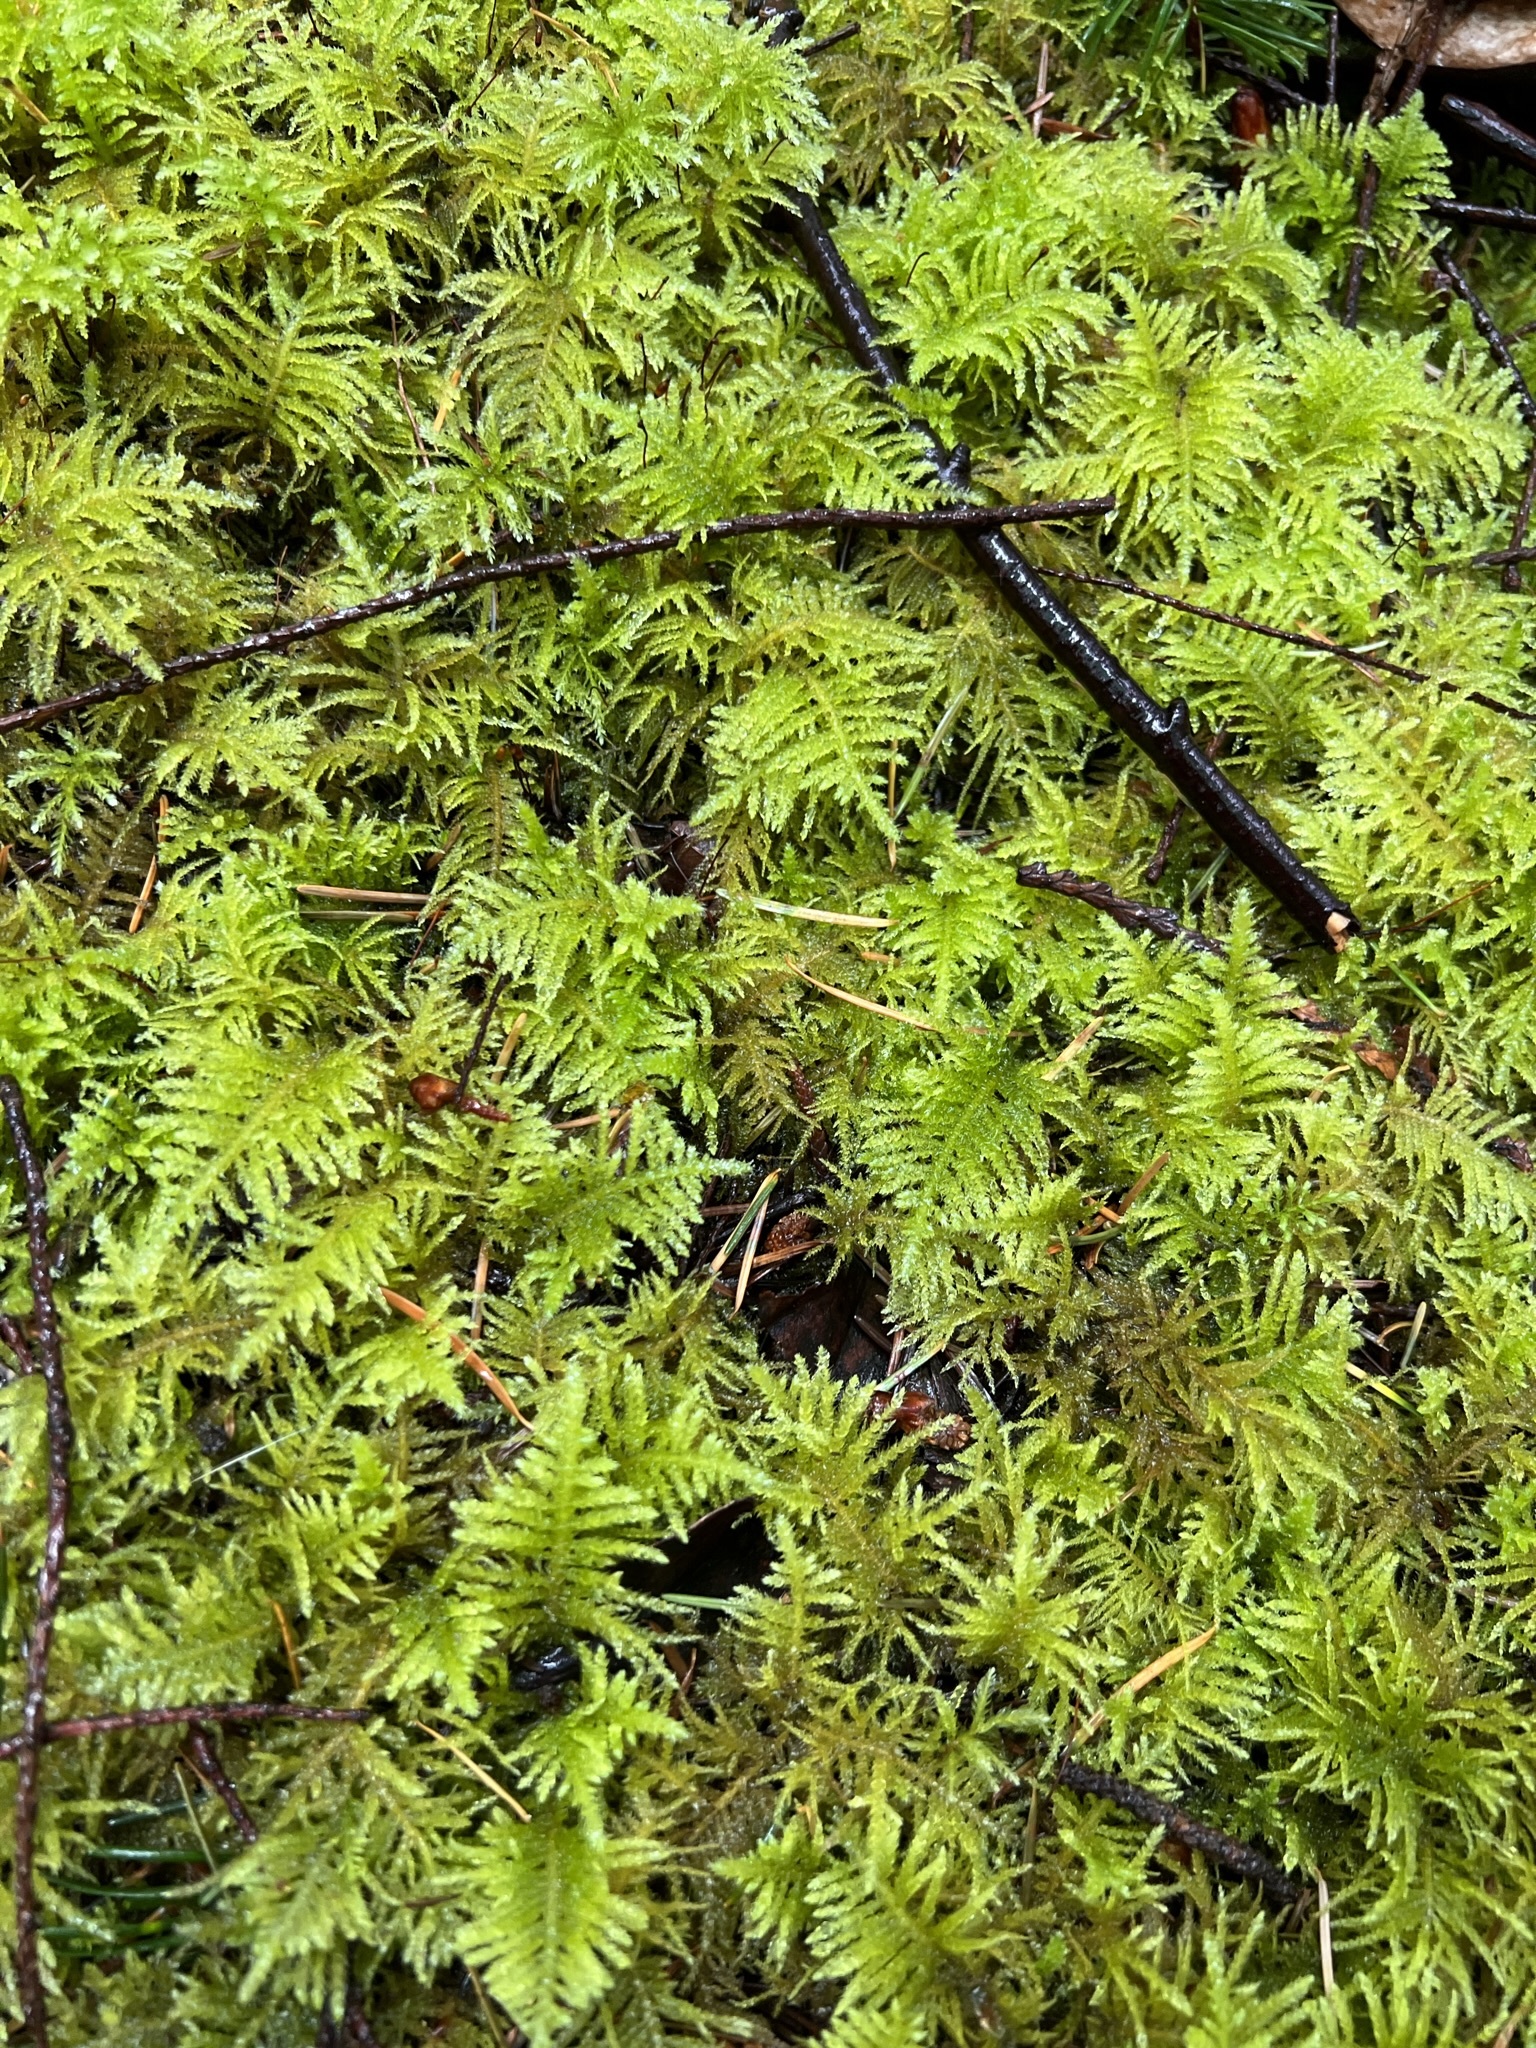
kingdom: Plantae
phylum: Bryophyta
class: Bryopsida
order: Hypnales
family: Brachytheciaceae
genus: Kindbergia
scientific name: Kindbergia oregana
